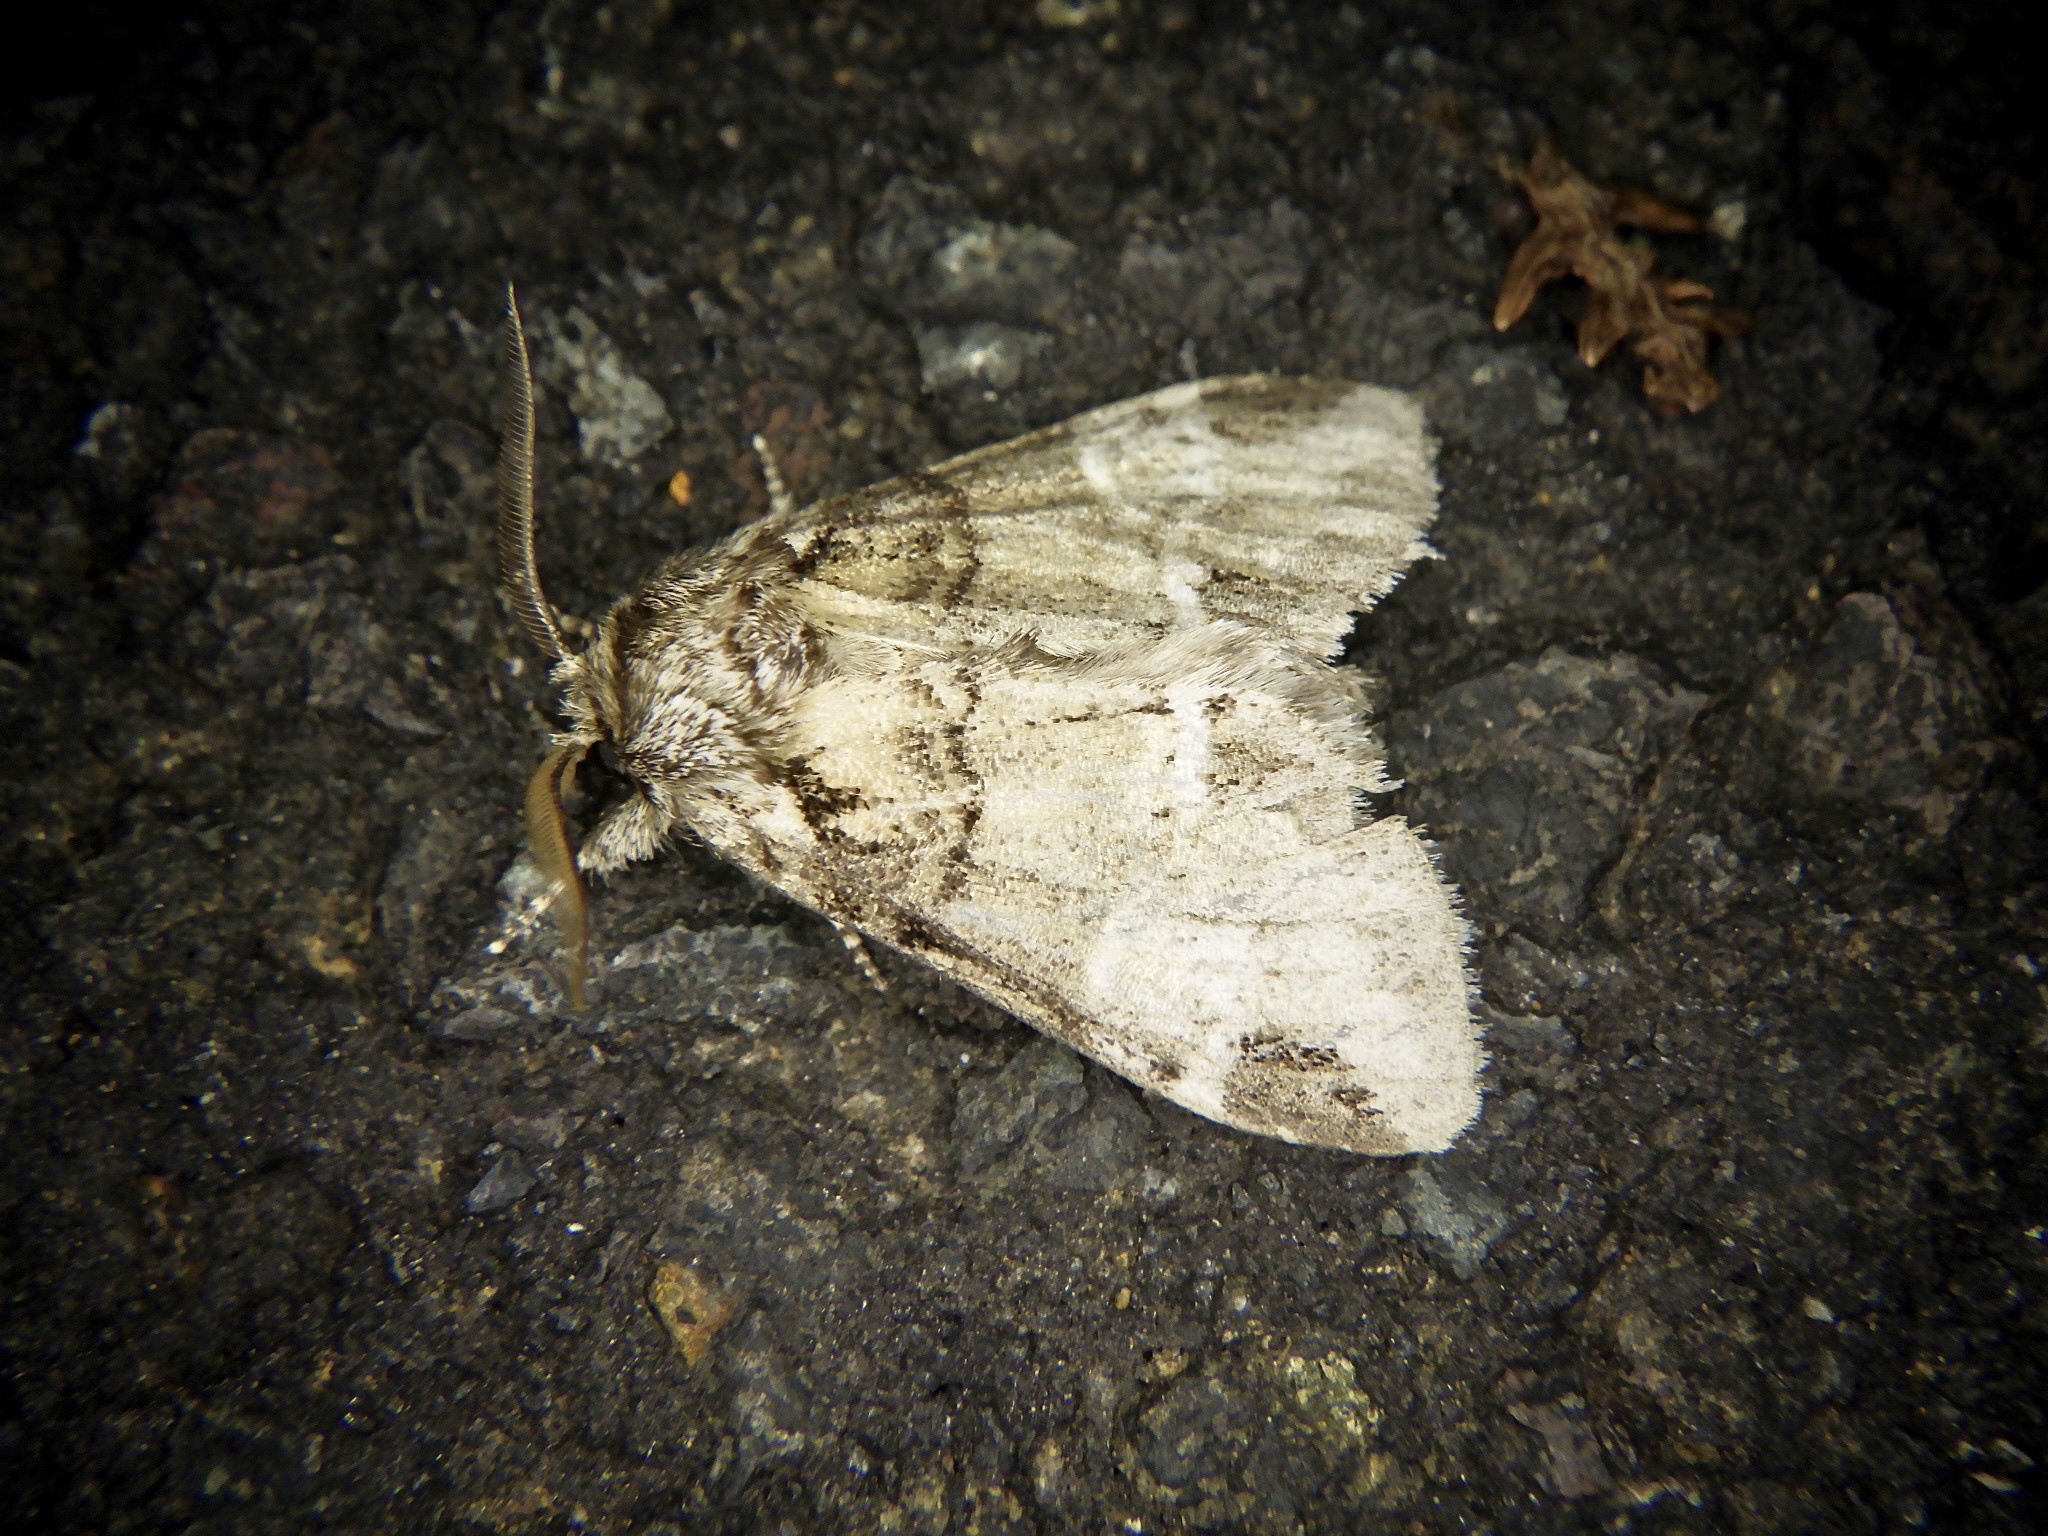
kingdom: Animalia
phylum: Arthropoda
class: Insecta
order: Lepidoptera
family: Notodontidae
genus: Drymonia
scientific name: Drymonia japonica
